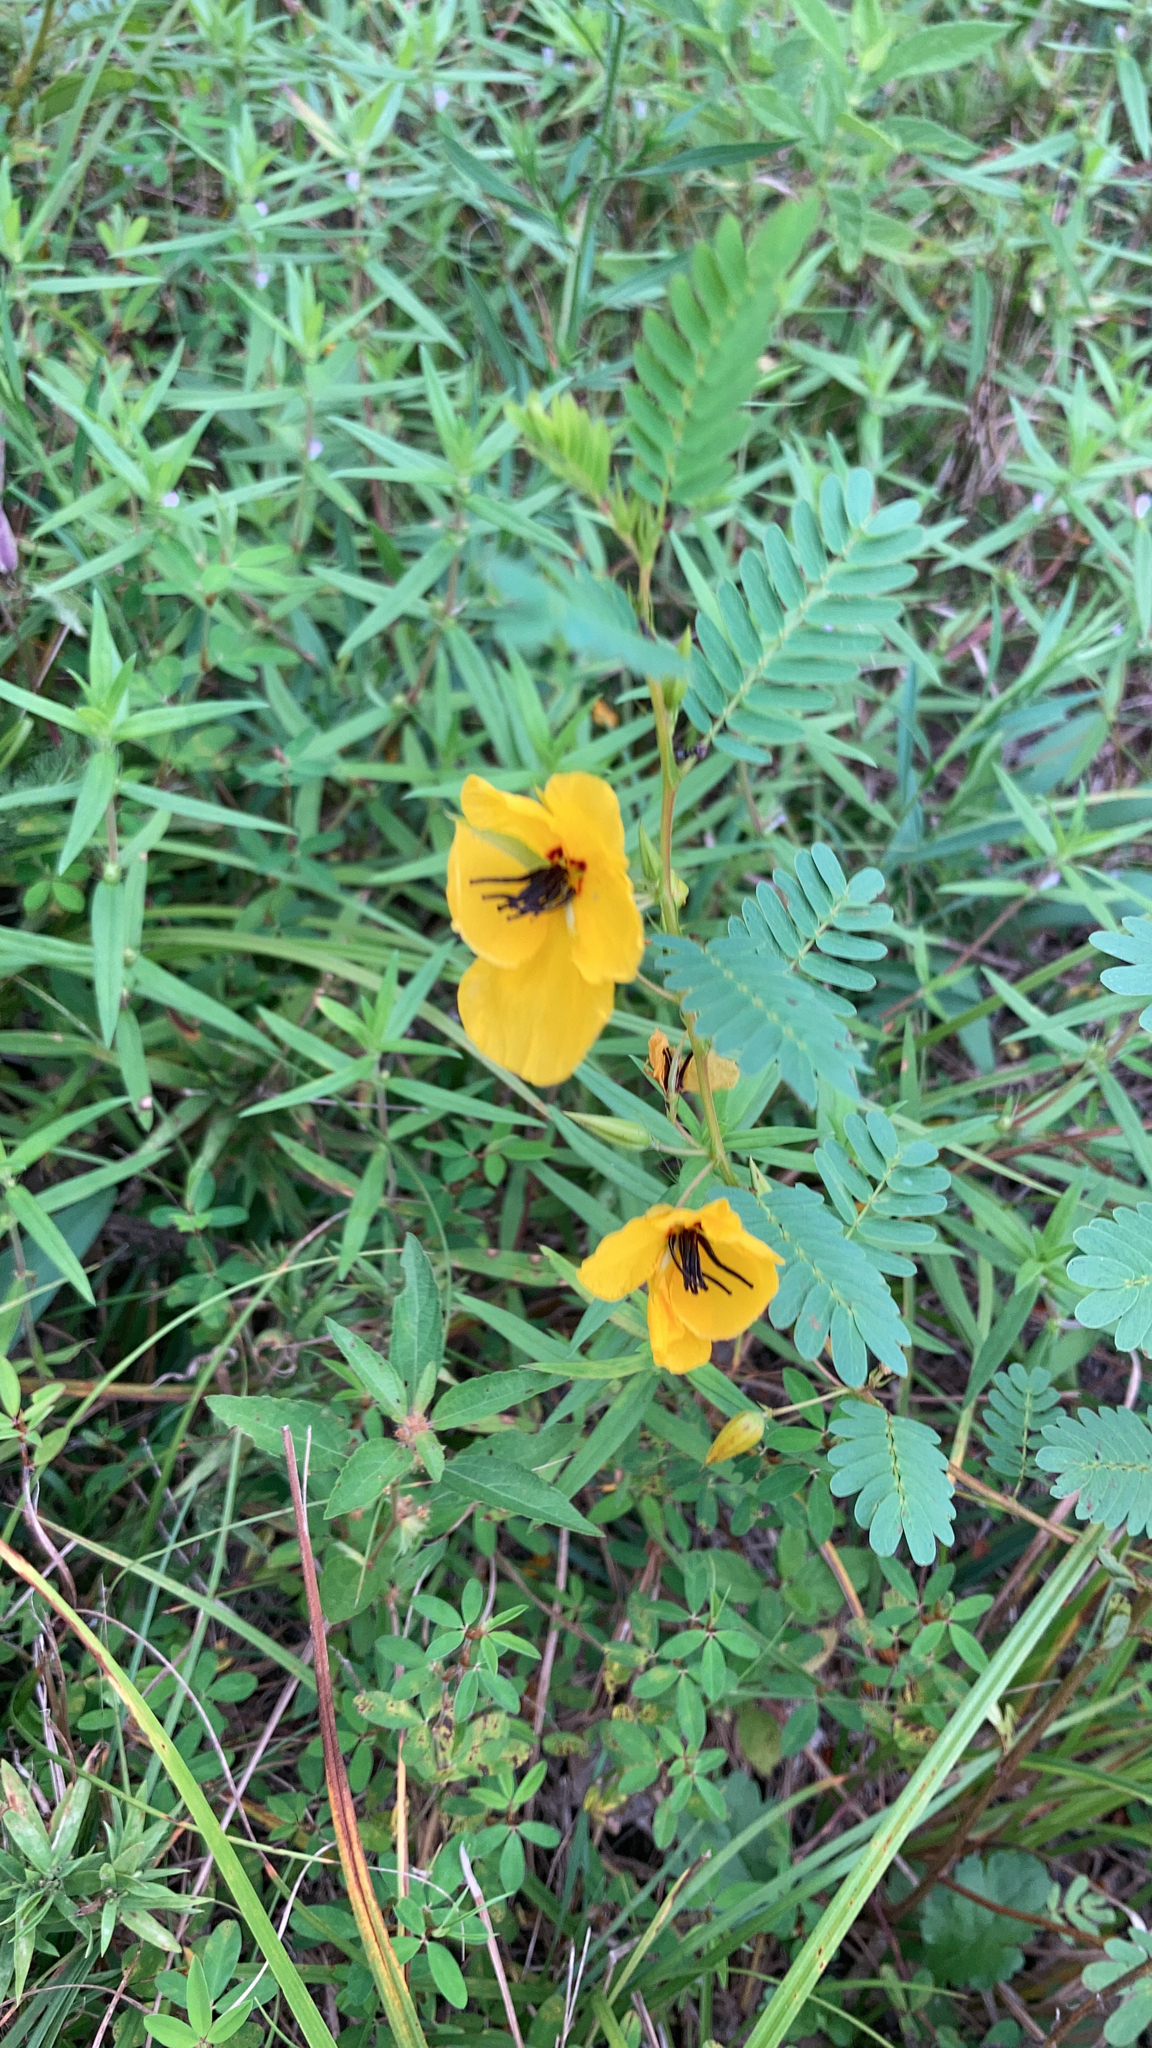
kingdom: Plantae
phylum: Tracheophyta
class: Magnoliopsida
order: Fabales
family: Fabaceae
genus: Chamaecrista
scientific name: Chamaecrista fasciculata
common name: Golden cassia
